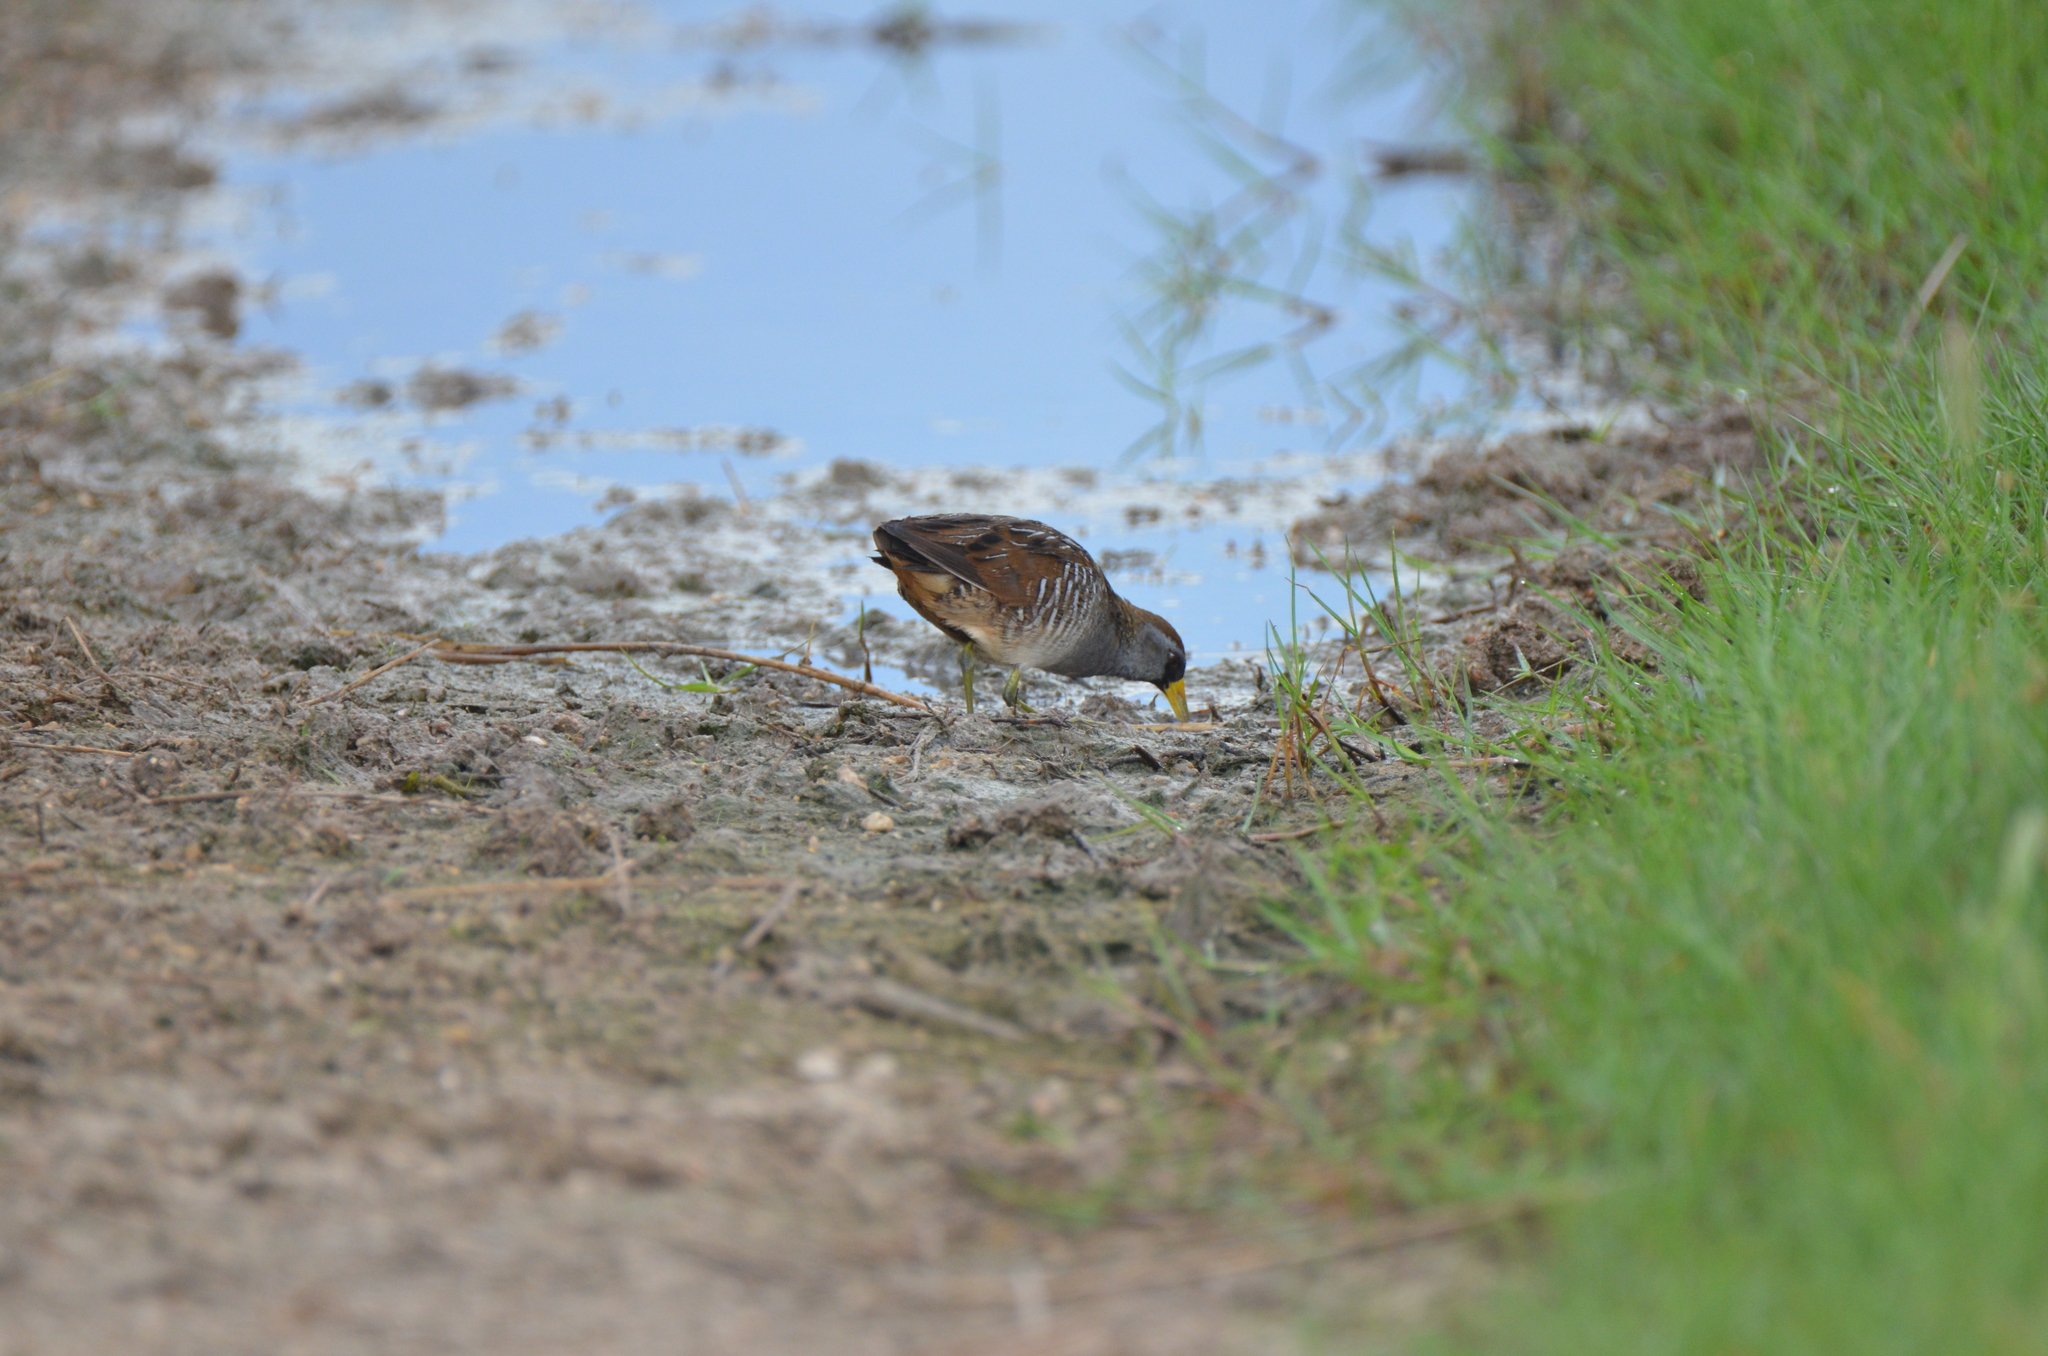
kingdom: Animalia
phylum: Chordata
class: Aves
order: Gruiformes
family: Rallidae
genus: Porzana
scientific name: Porzana carolina
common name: Sora
